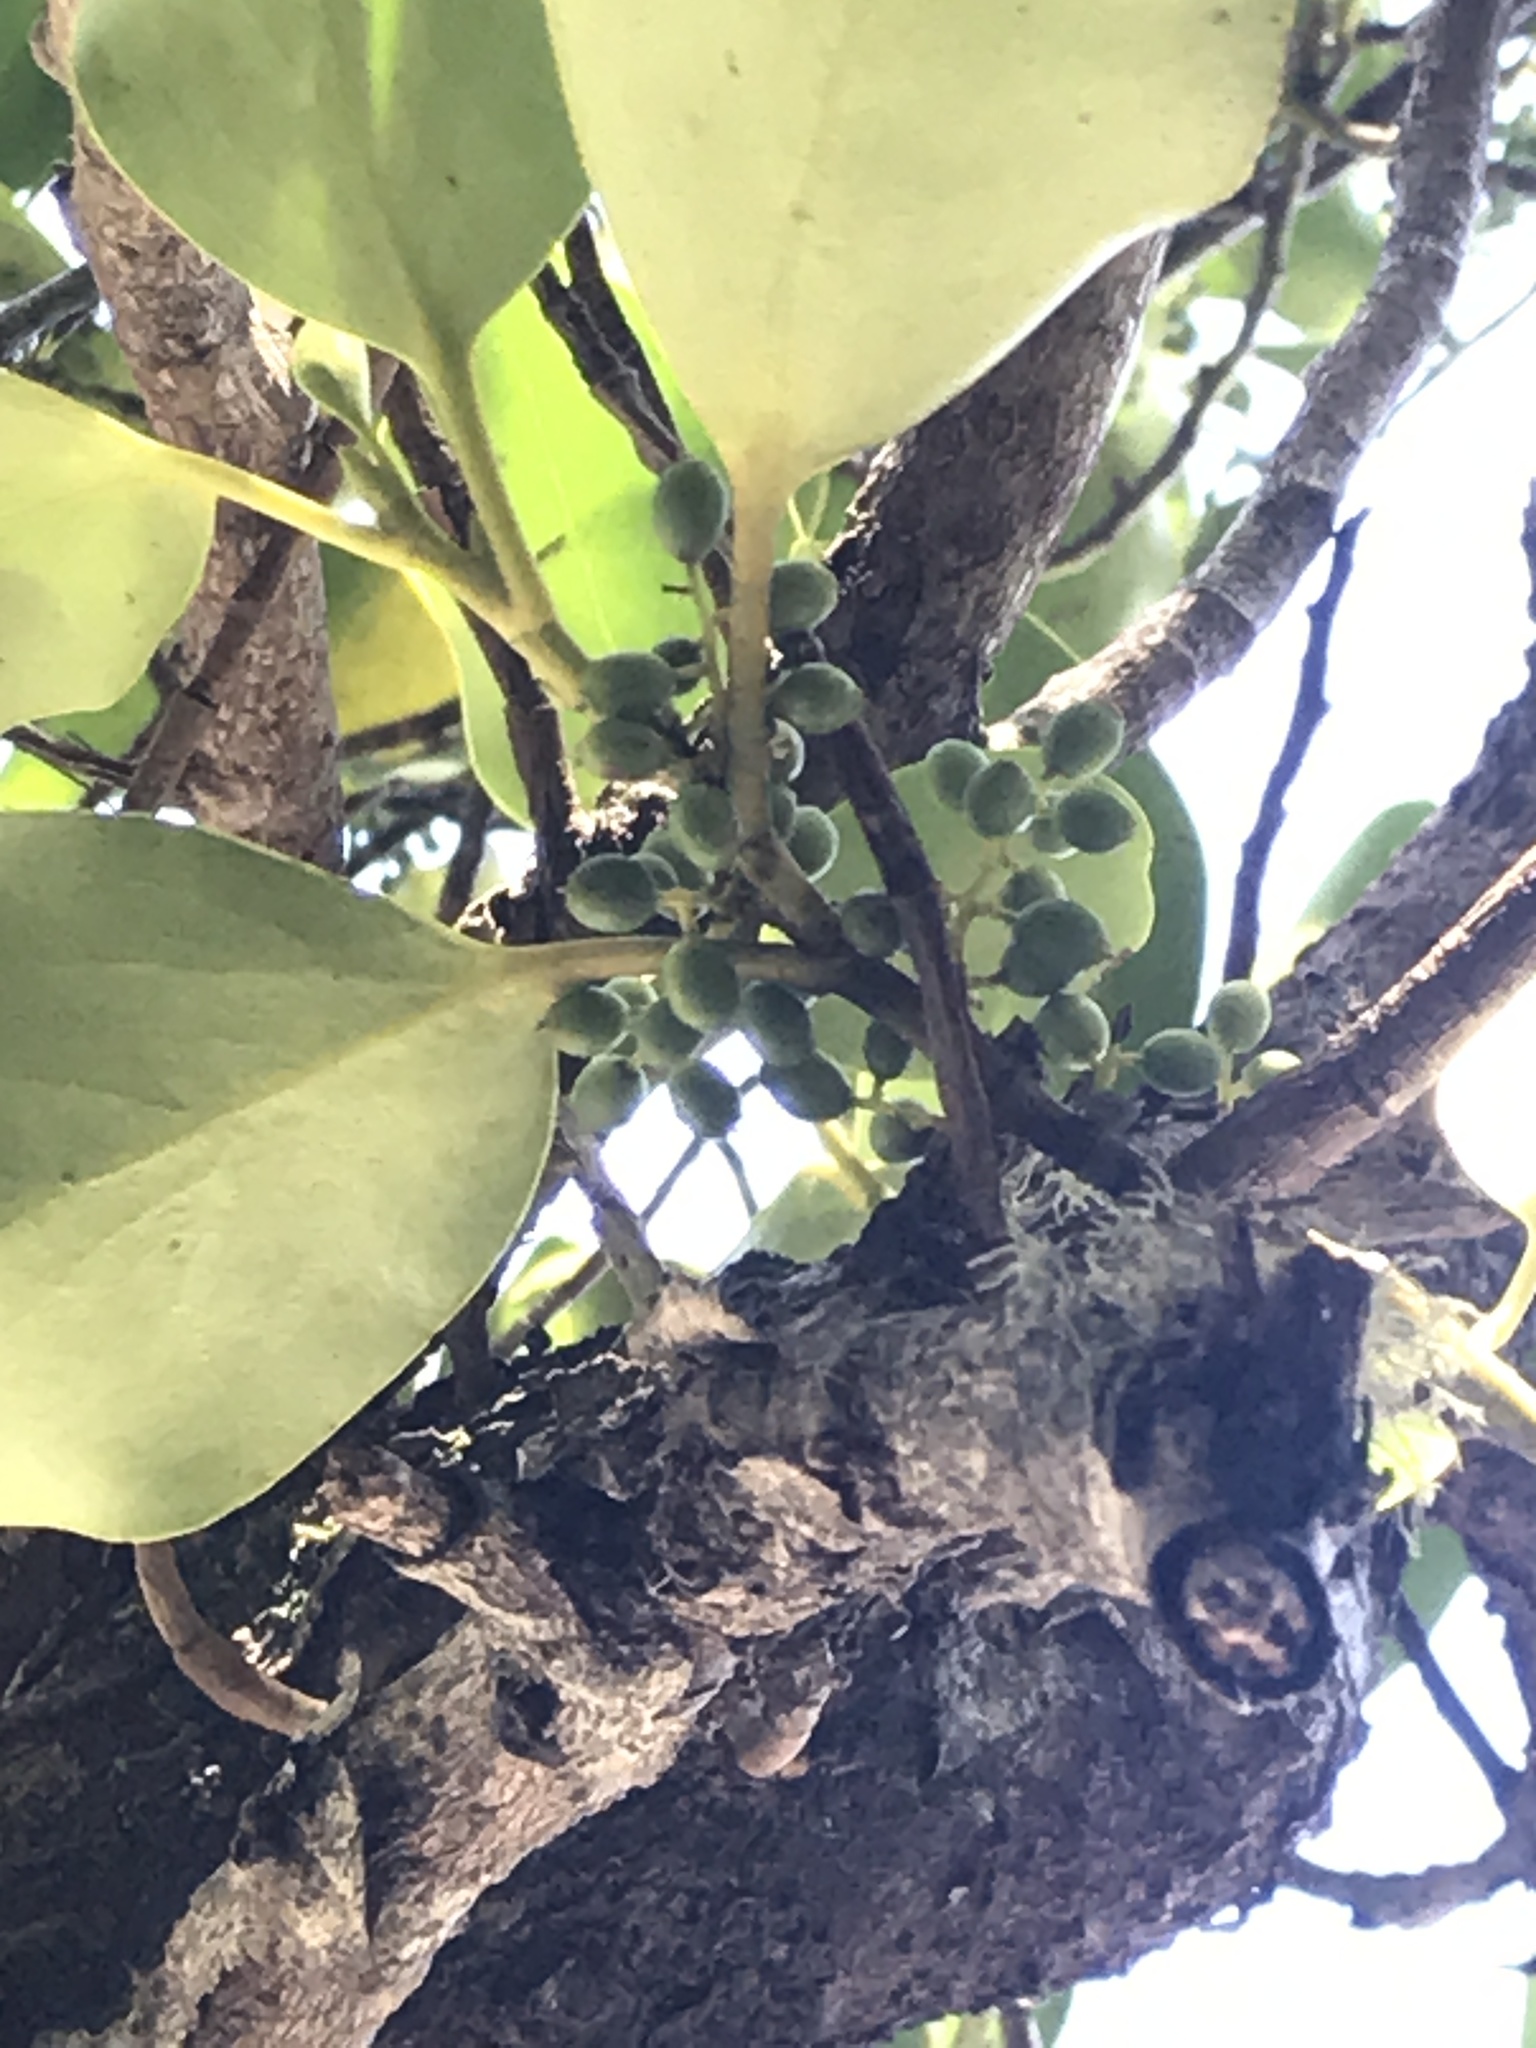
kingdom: Plantae
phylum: Tracheophyta
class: Magnoliopsida
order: Apiales
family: Griseliniaceae
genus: Griselinia
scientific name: Griselinia littoralis
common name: New zealand broadleaf
